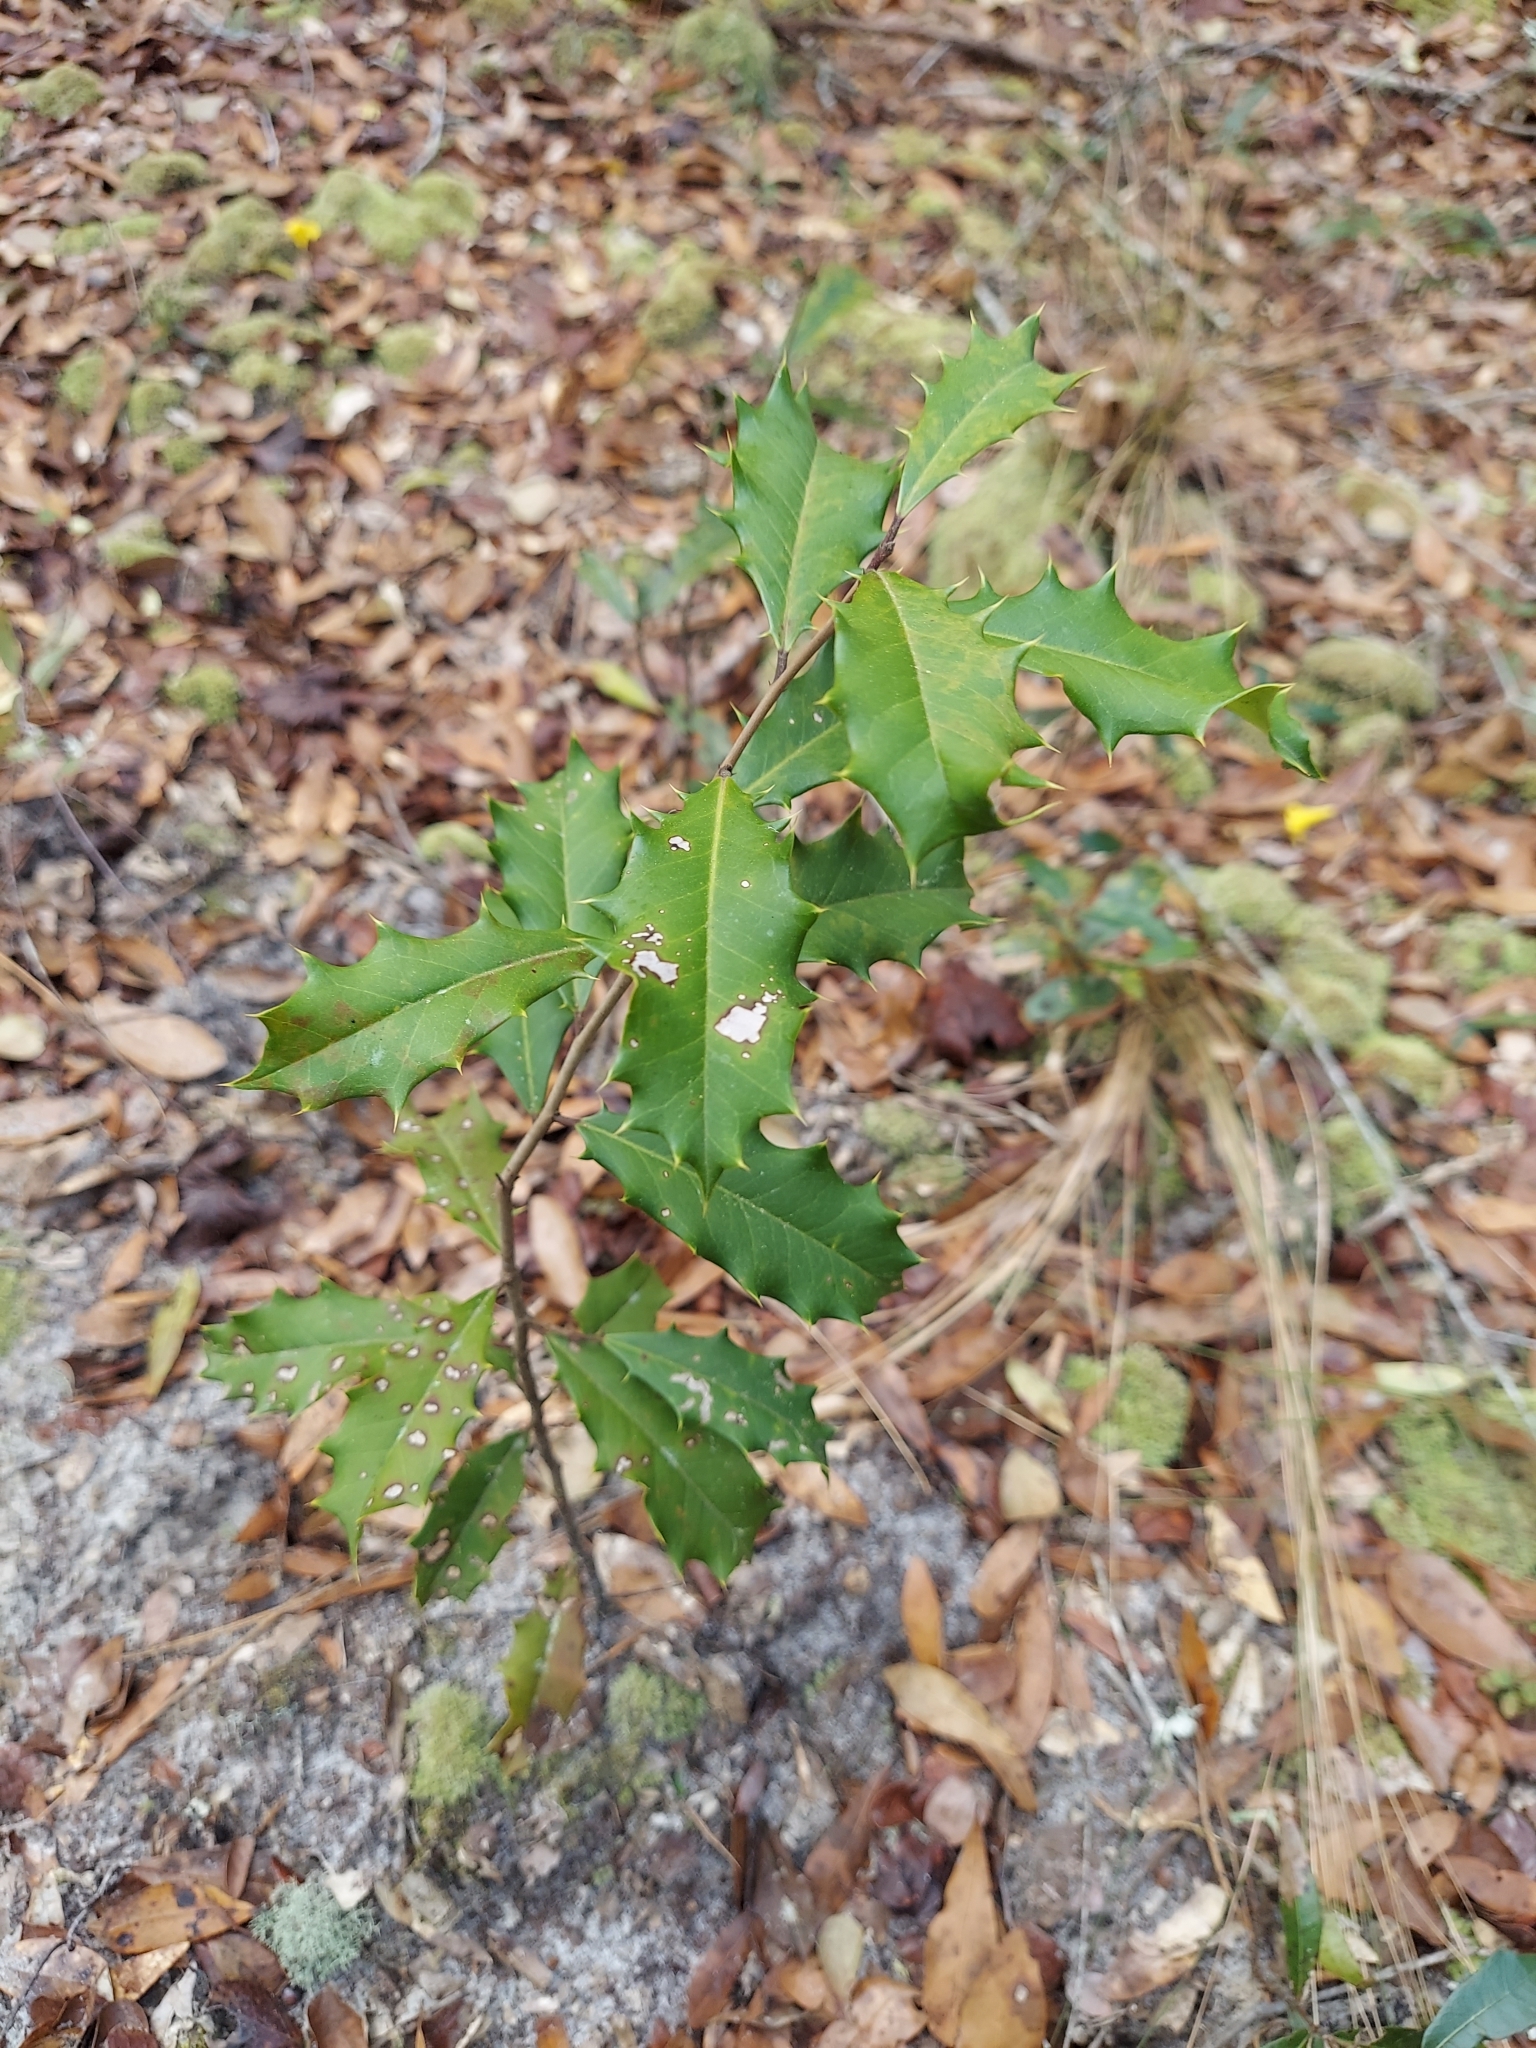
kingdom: Plantae
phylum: Tracheophyta
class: Magnoliopsida
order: Aquifoliales
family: Aquifoliaceae
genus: Ilex
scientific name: Ilex opaca
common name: American holly
